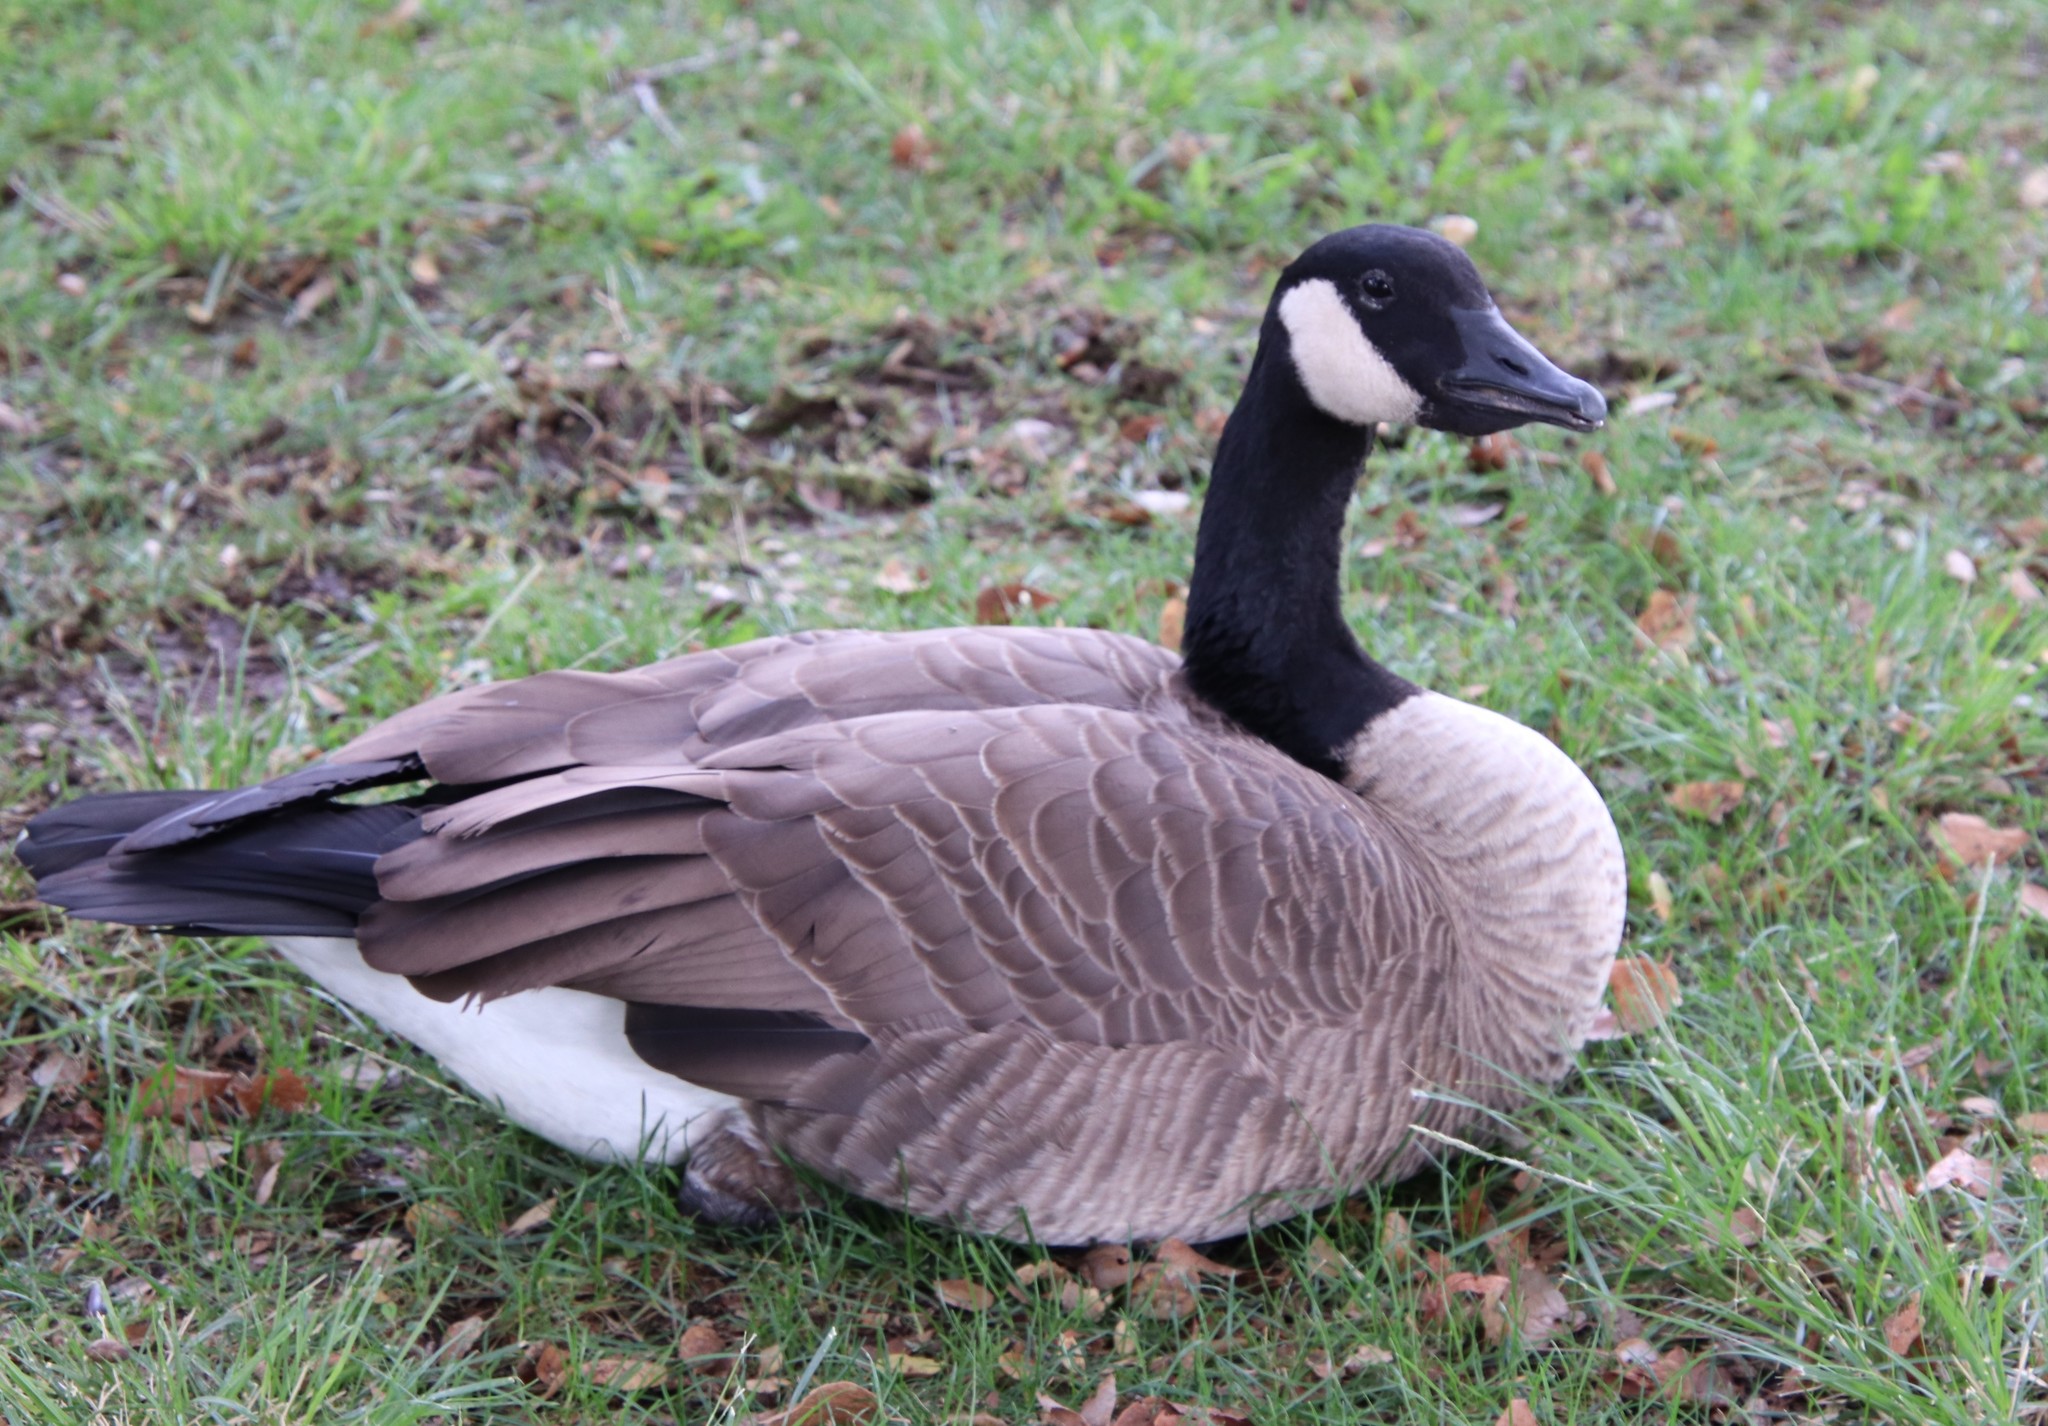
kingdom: Animalia
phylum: Chordata
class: Aves
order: Anseriformes
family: Anatidae
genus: Branta
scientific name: Branta canadensis
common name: Canada goose
